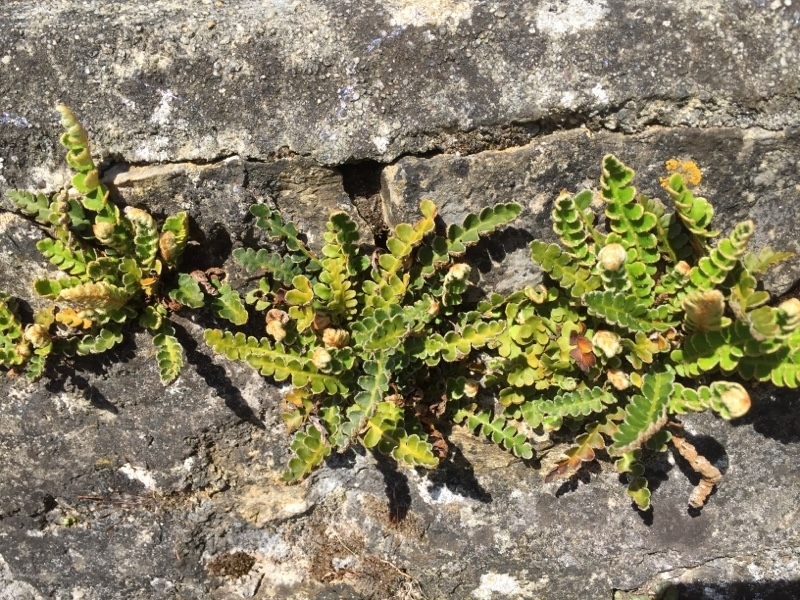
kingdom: Plantae
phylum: Tracheophyta
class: Polypodiopsida
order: Polypodiales
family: Aspleniaceae
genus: Asplenium
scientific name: Asplenium ceterach
